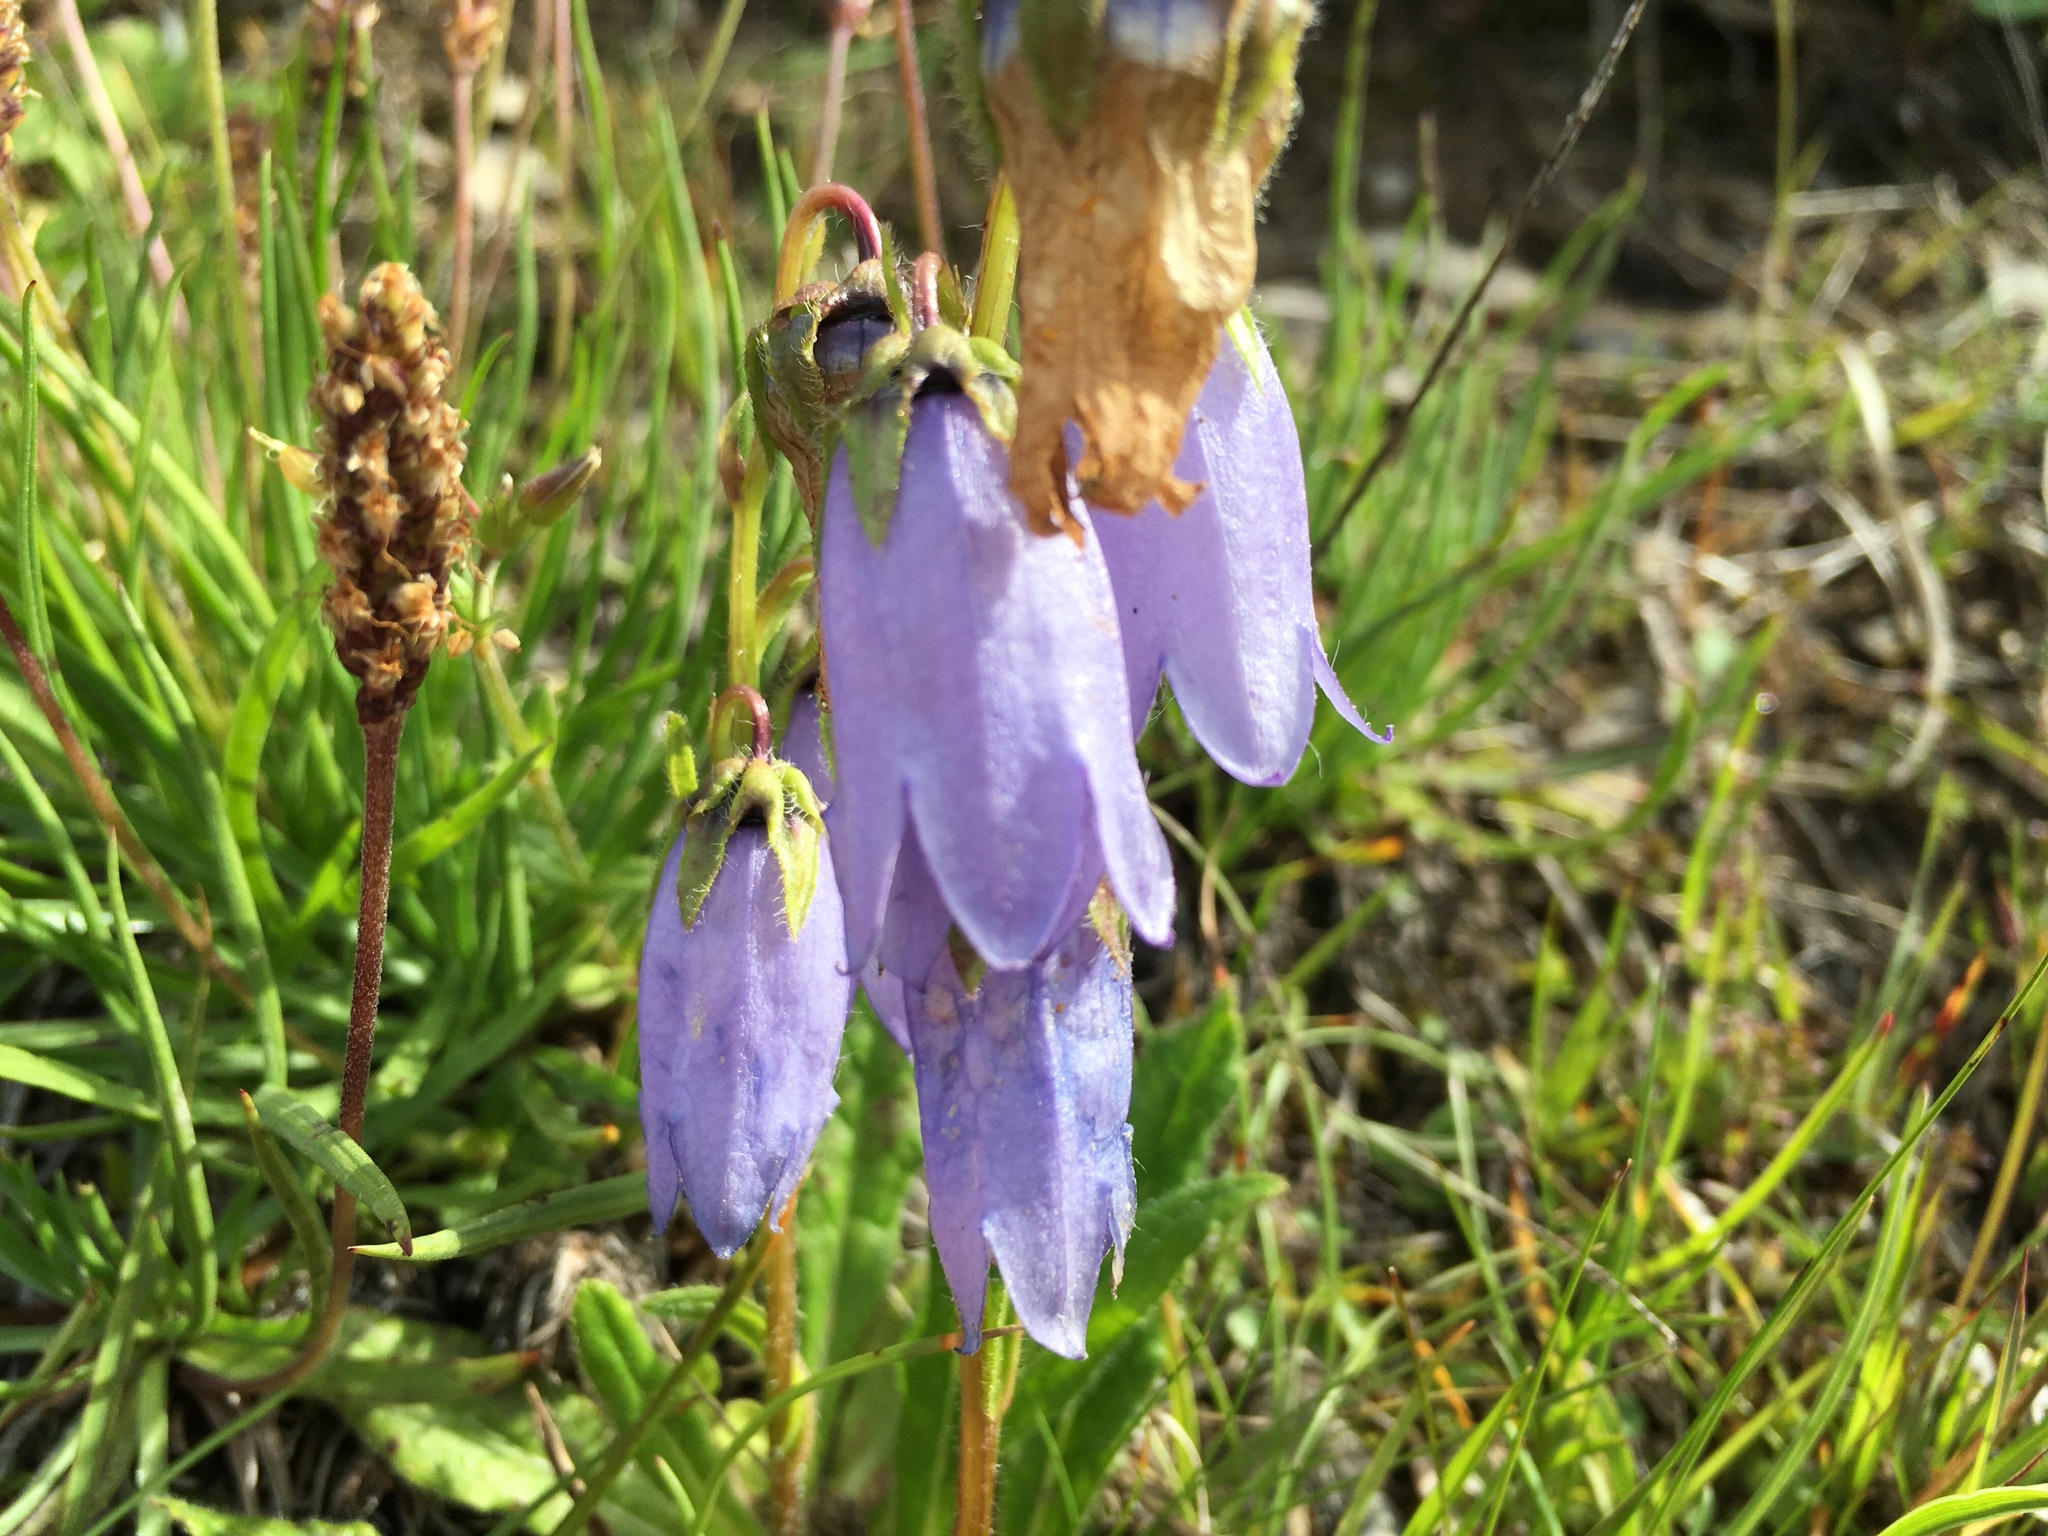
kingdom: Plantae
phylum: Tracheophyta
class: Magnoliopsida
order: Asterales
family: Campanulaceae
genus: Campanula
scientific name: Campanula barbata
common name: Bearded bellflower
